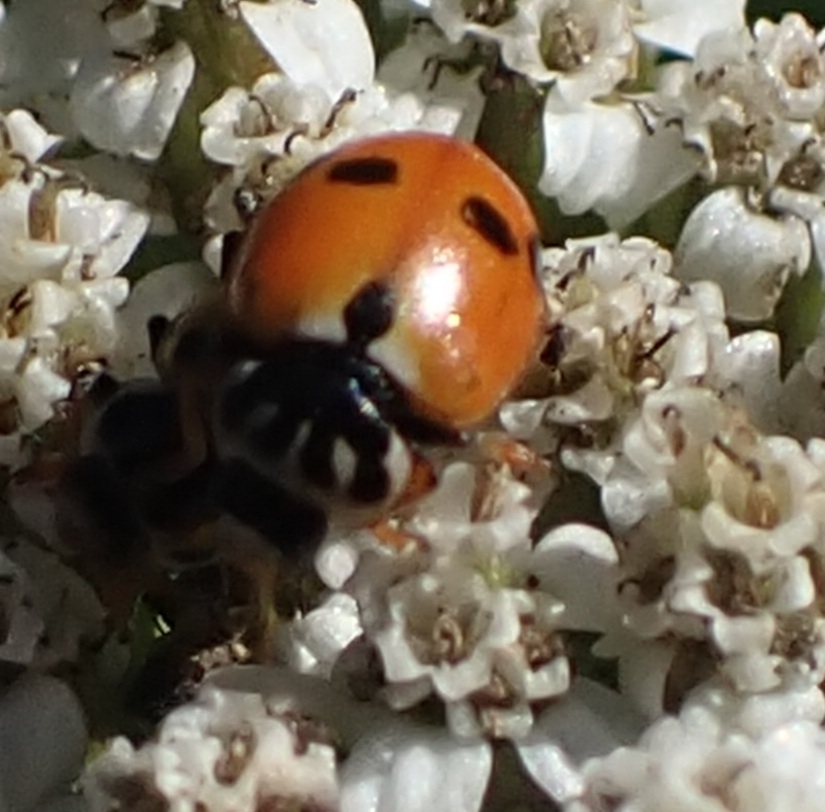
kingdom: Animalia
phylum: Arthropoda
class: Insecta
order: Coleoptera
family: Coccinellidae
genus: Hippodamia
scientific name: Hippodamia variegata
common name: Ladybird beetle
